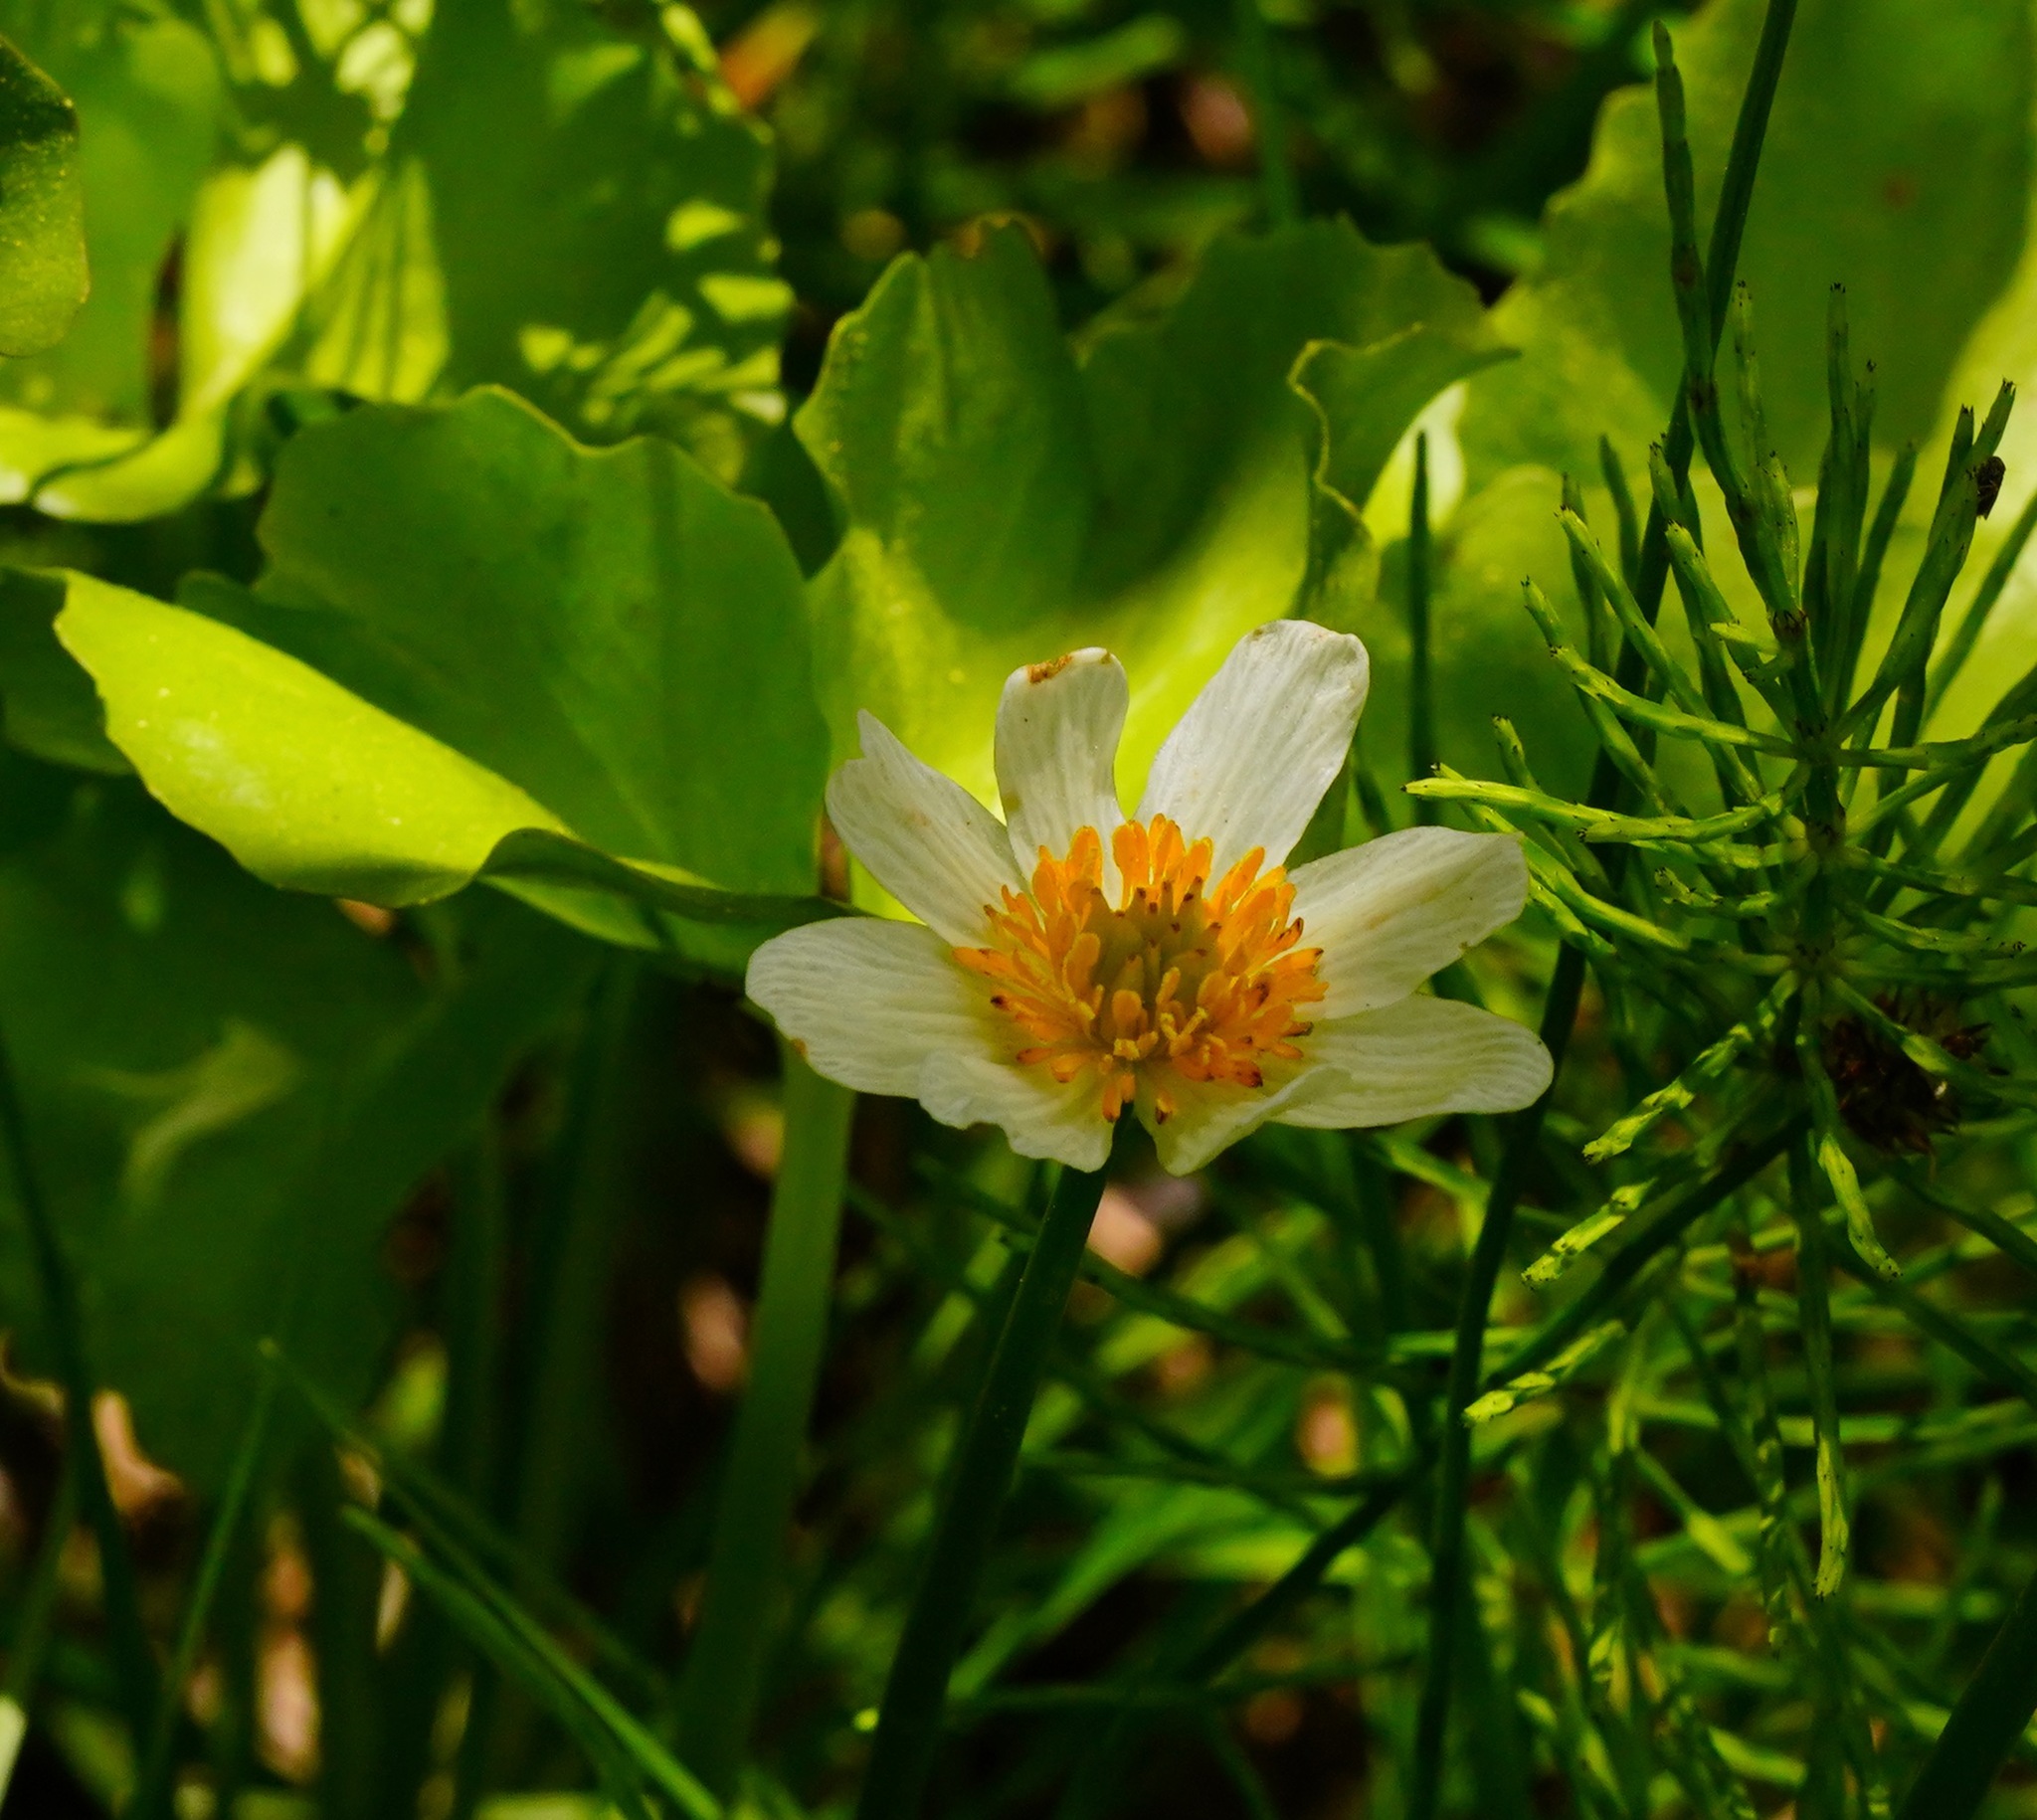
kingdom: Plantae
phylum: Tracheophyta
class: Magnoliopsida
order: Ranunculales
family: Ranunculaceae
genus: Caltha
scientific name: Caltha leptosepala
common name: Elkslip
